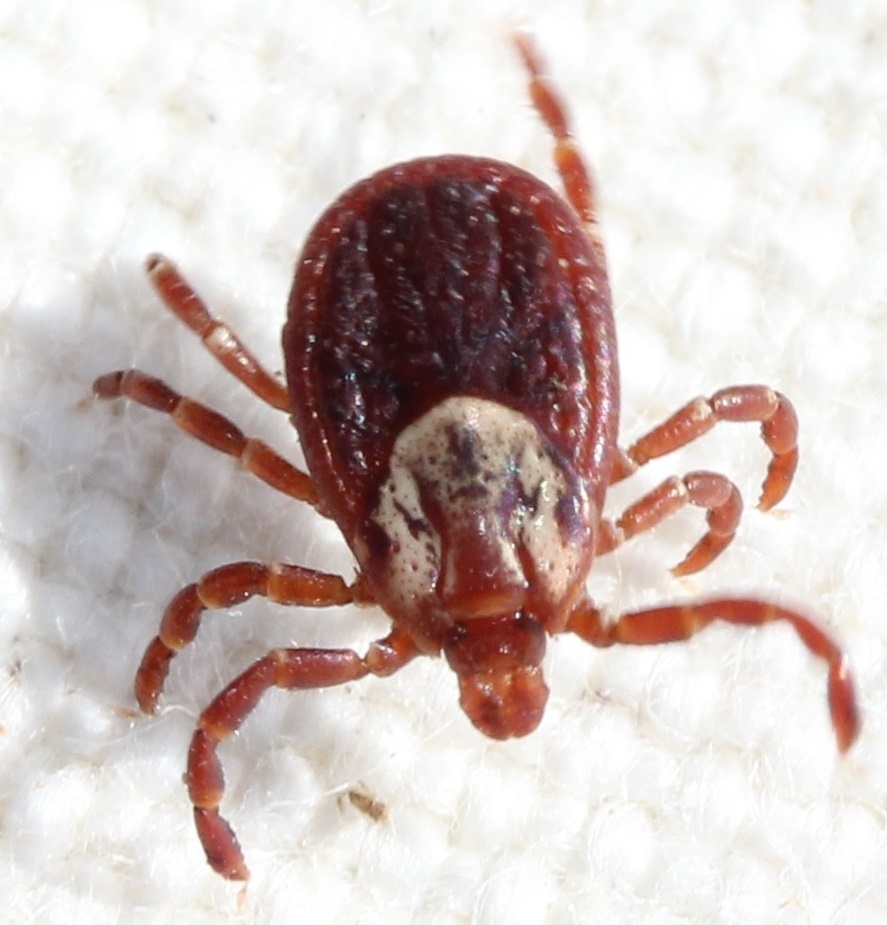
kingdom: Animalia
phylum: Arthropoda
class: Arachnida
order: Ixodida
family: Ixodidae
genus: Dermacentor
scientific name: Dermacentor variabilis
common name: American dog tick
